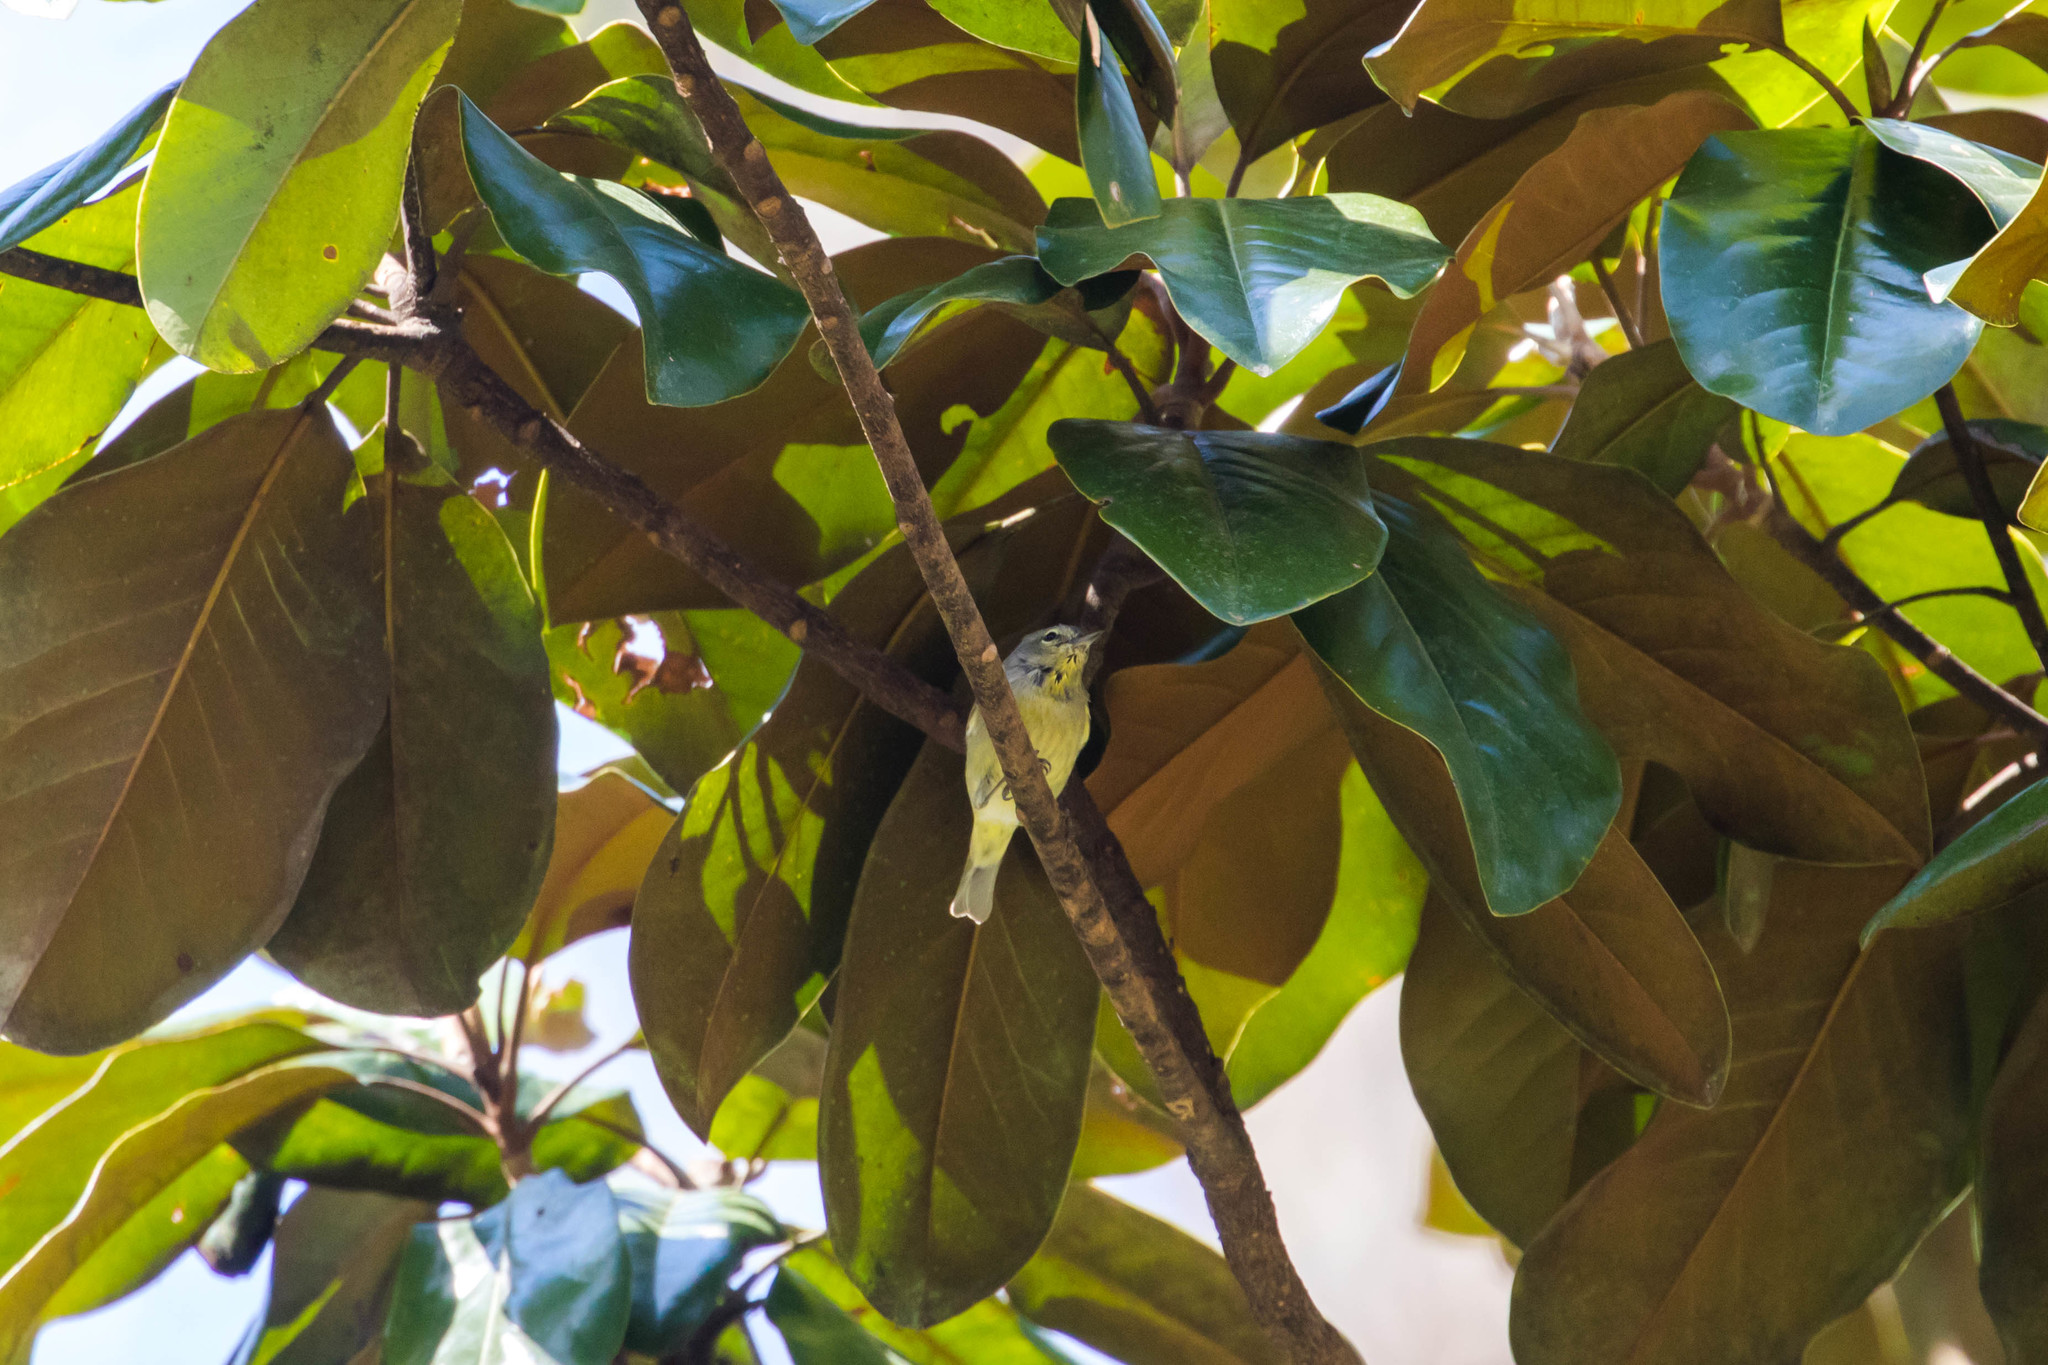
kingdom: Animalia
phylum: Chordata
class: Aves
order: Passeriformes
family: Parulidae
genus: Leiothlypis
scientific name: Leiothlypis celata
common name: Orange-crowned warbler
